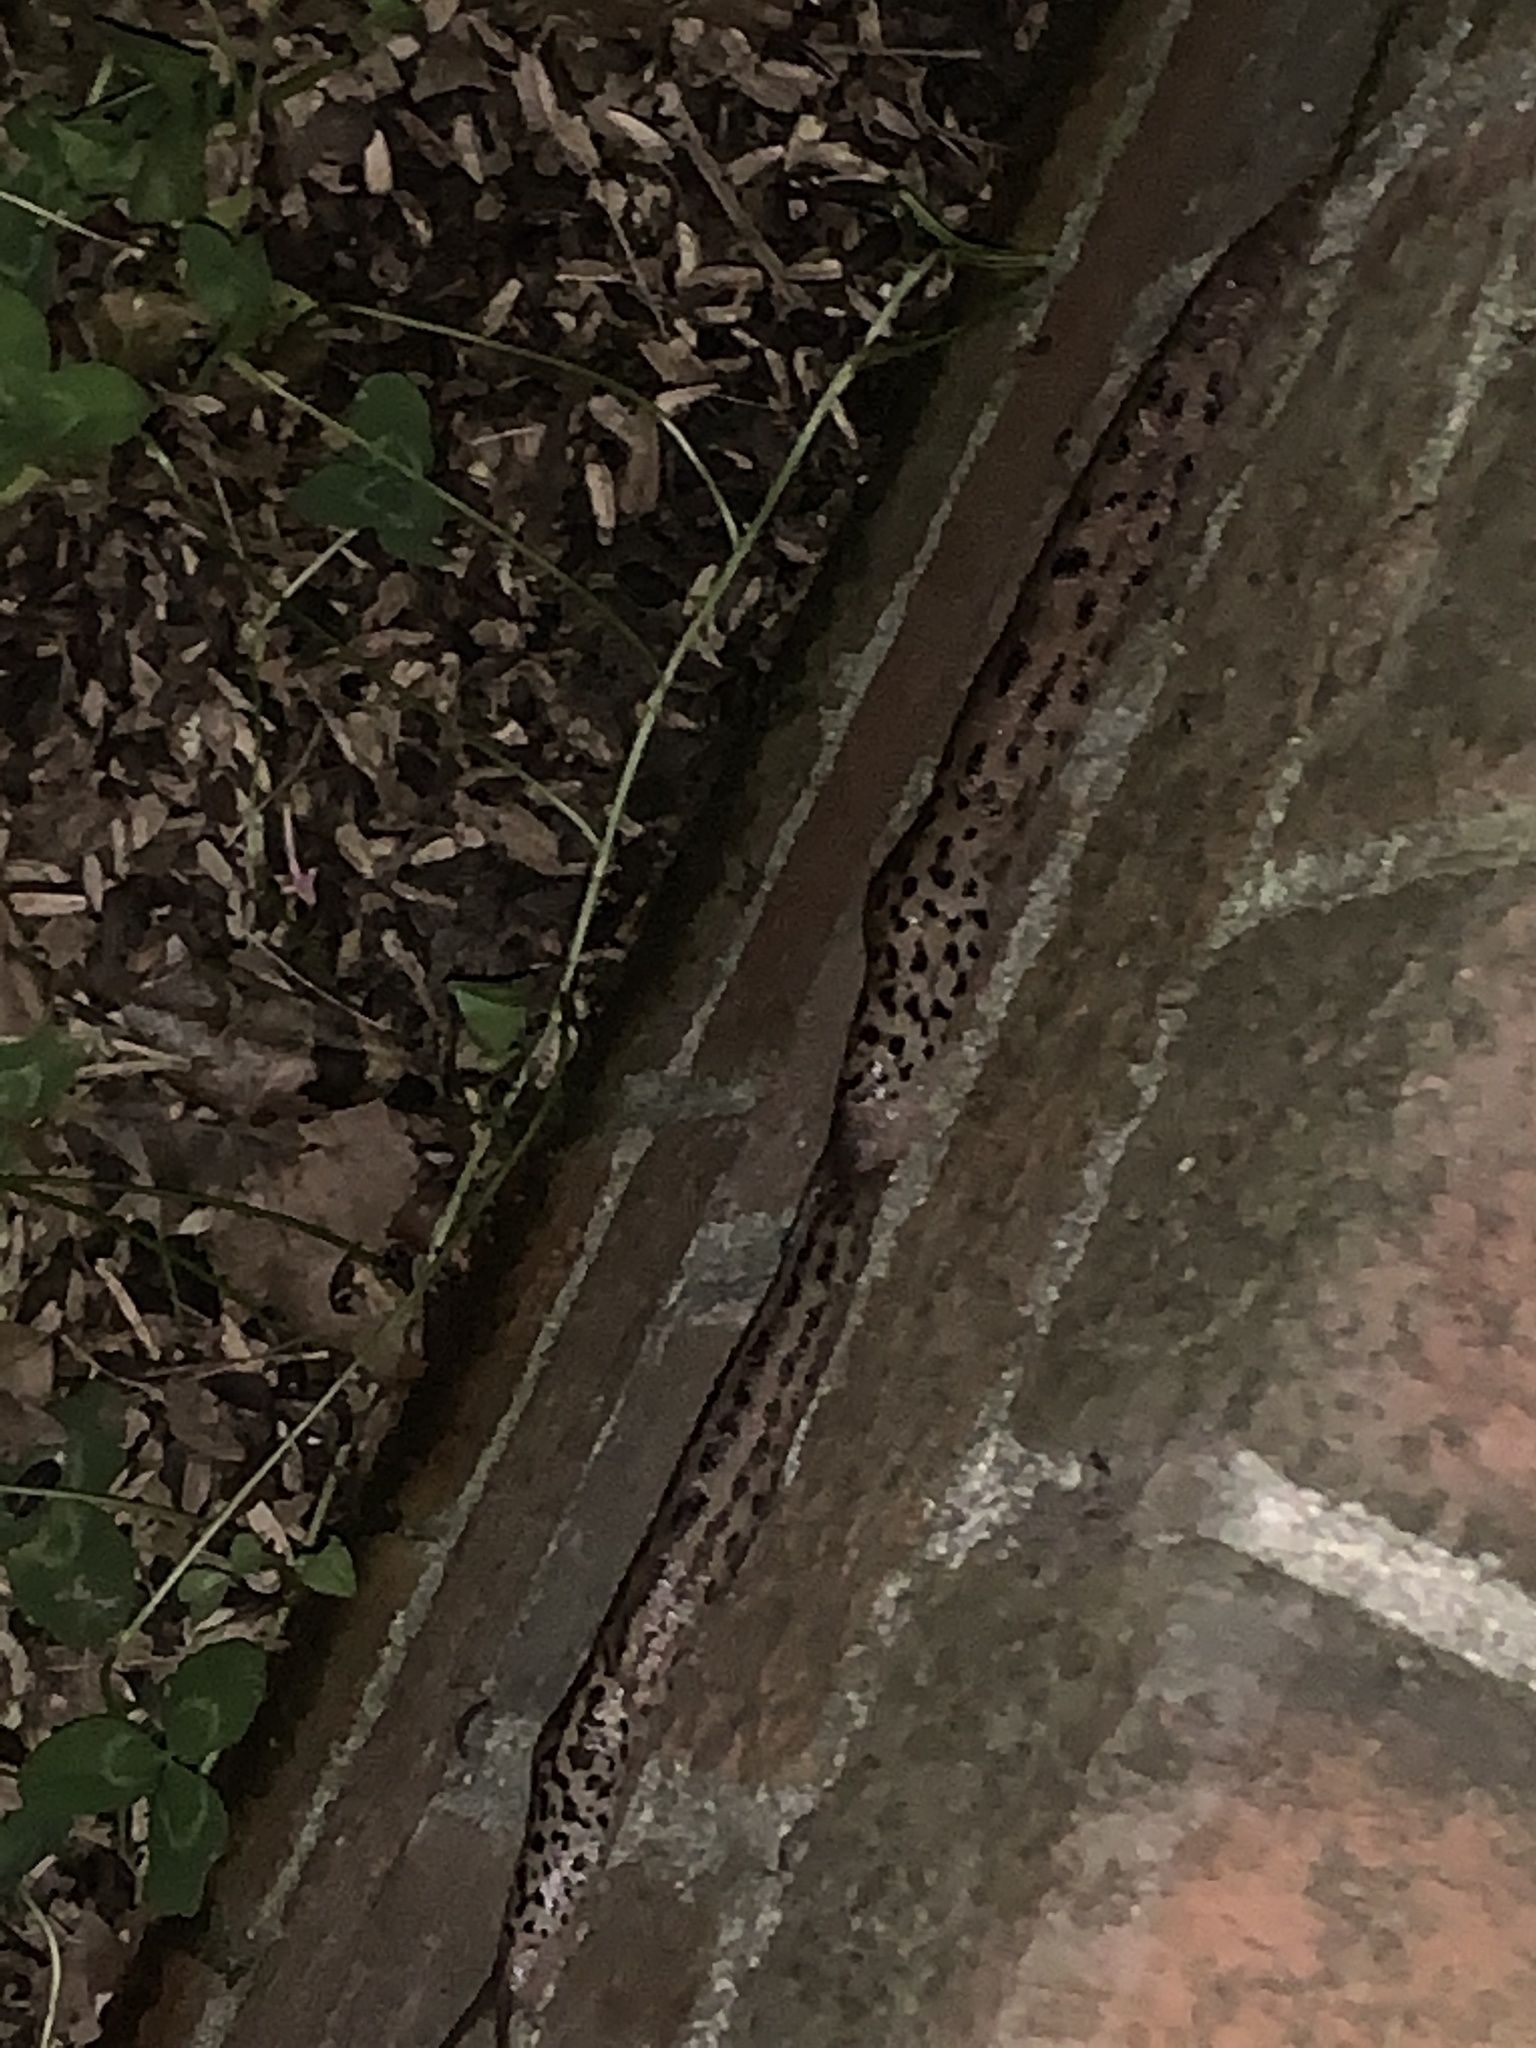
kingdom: Animalia
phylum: Mollusca
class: Gastropoda
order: Stylommatophora
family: Limacidae
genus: Limax
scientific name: Limax maximus
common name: Great grey slug
